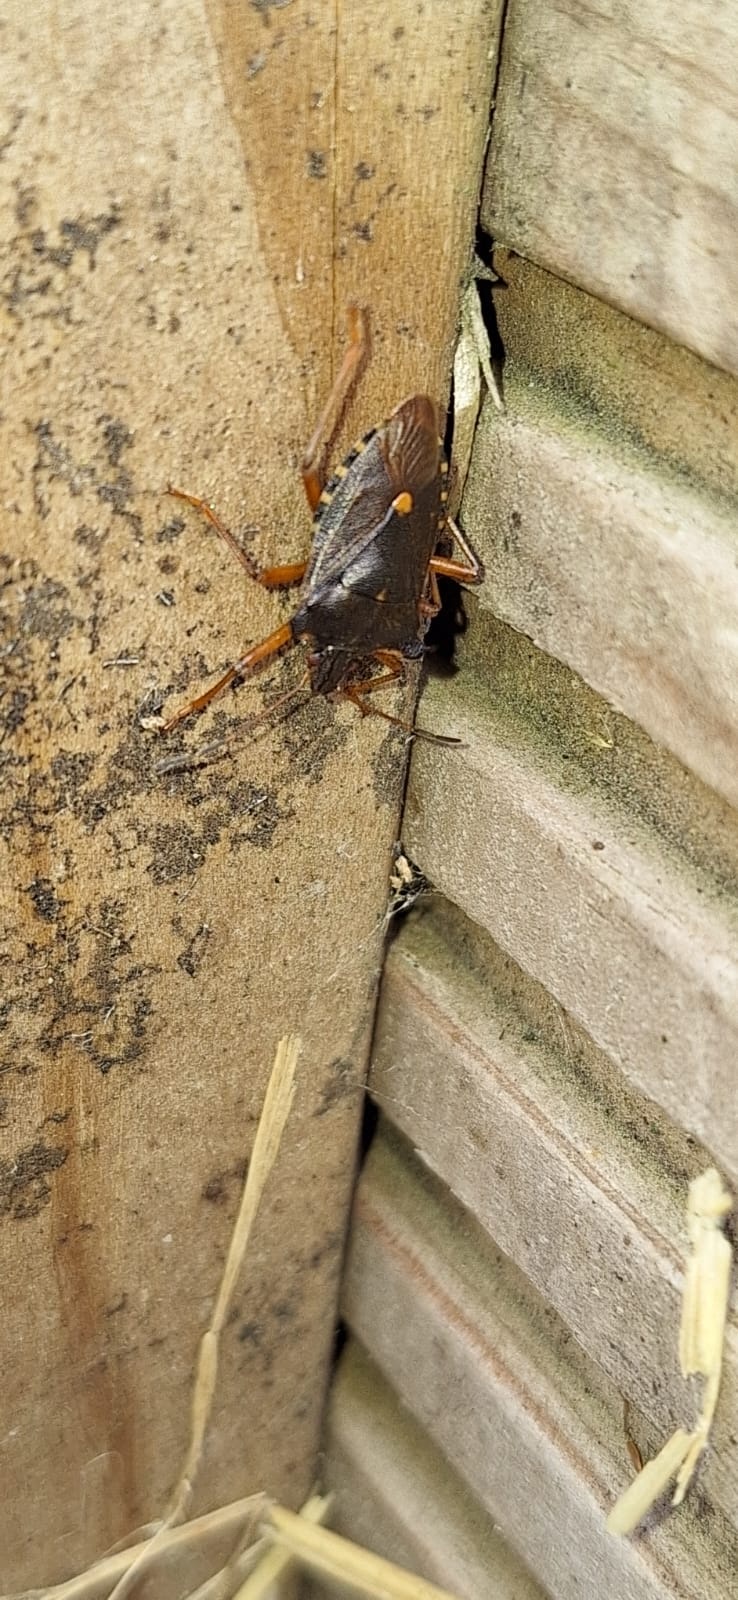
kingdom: Animalia
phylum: Arthropoda
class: Insecta
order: Hemiptera
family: Pentatomidae
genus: Pentatoma
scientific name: Pentatoma rufipes
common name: Forest bug
